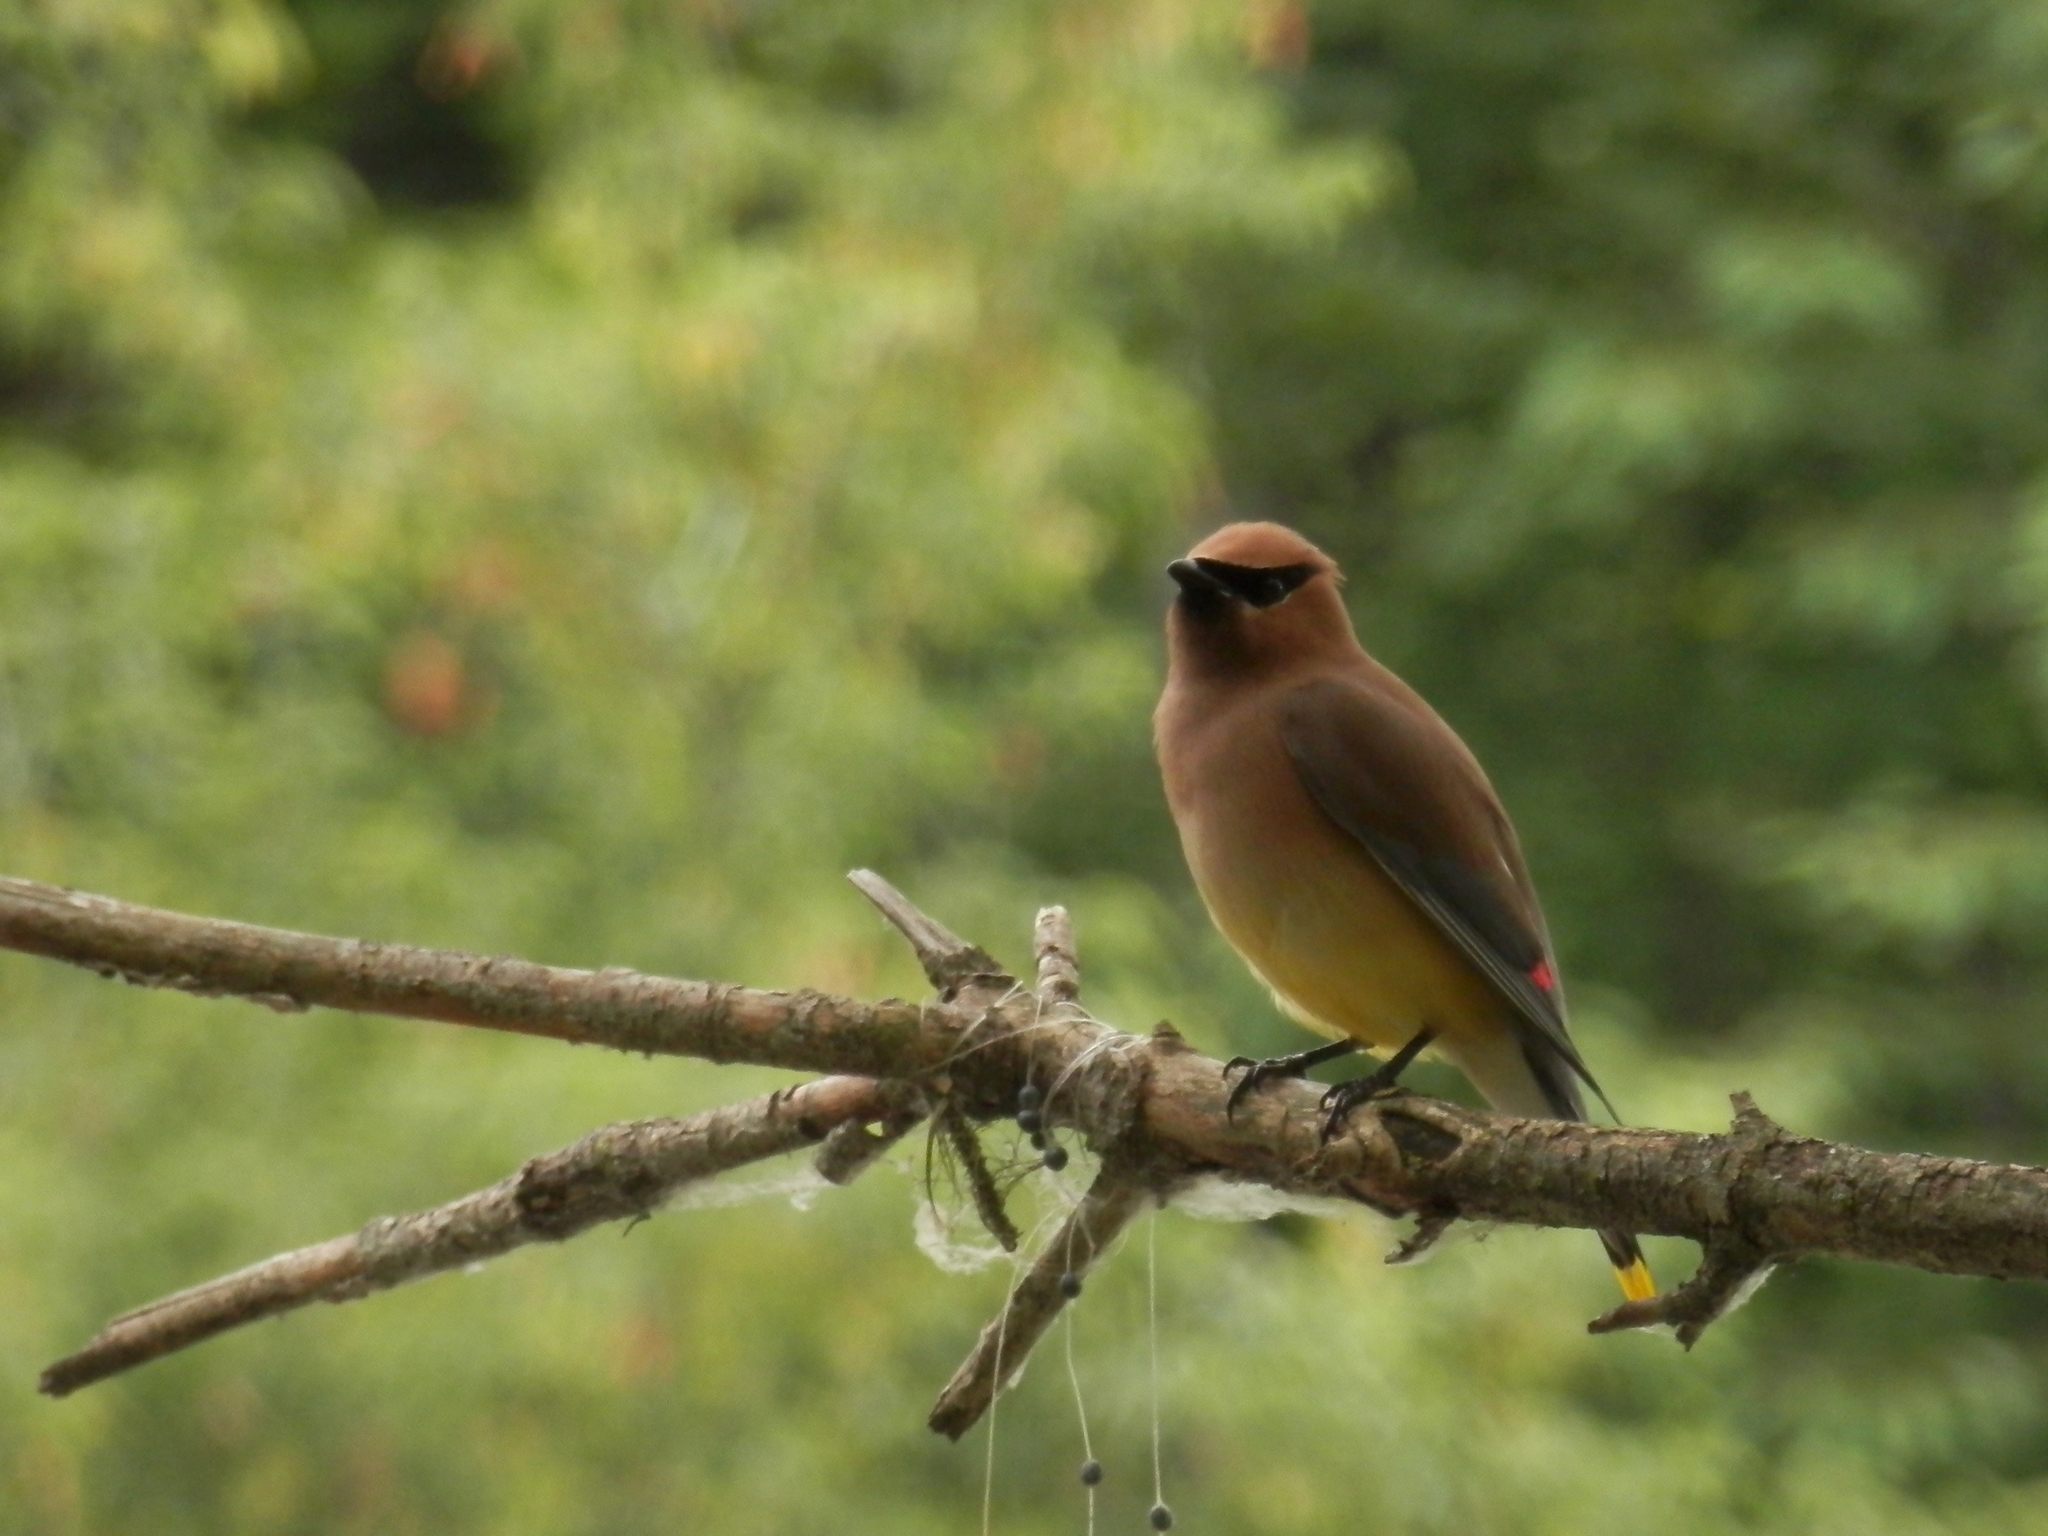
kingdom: Animalia
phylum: Chordata
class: Aves
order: Passeriformes
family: Bombycillidae
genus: Bombycilla
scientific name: Bombycilla cedrorum
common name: Cedar waxwing
